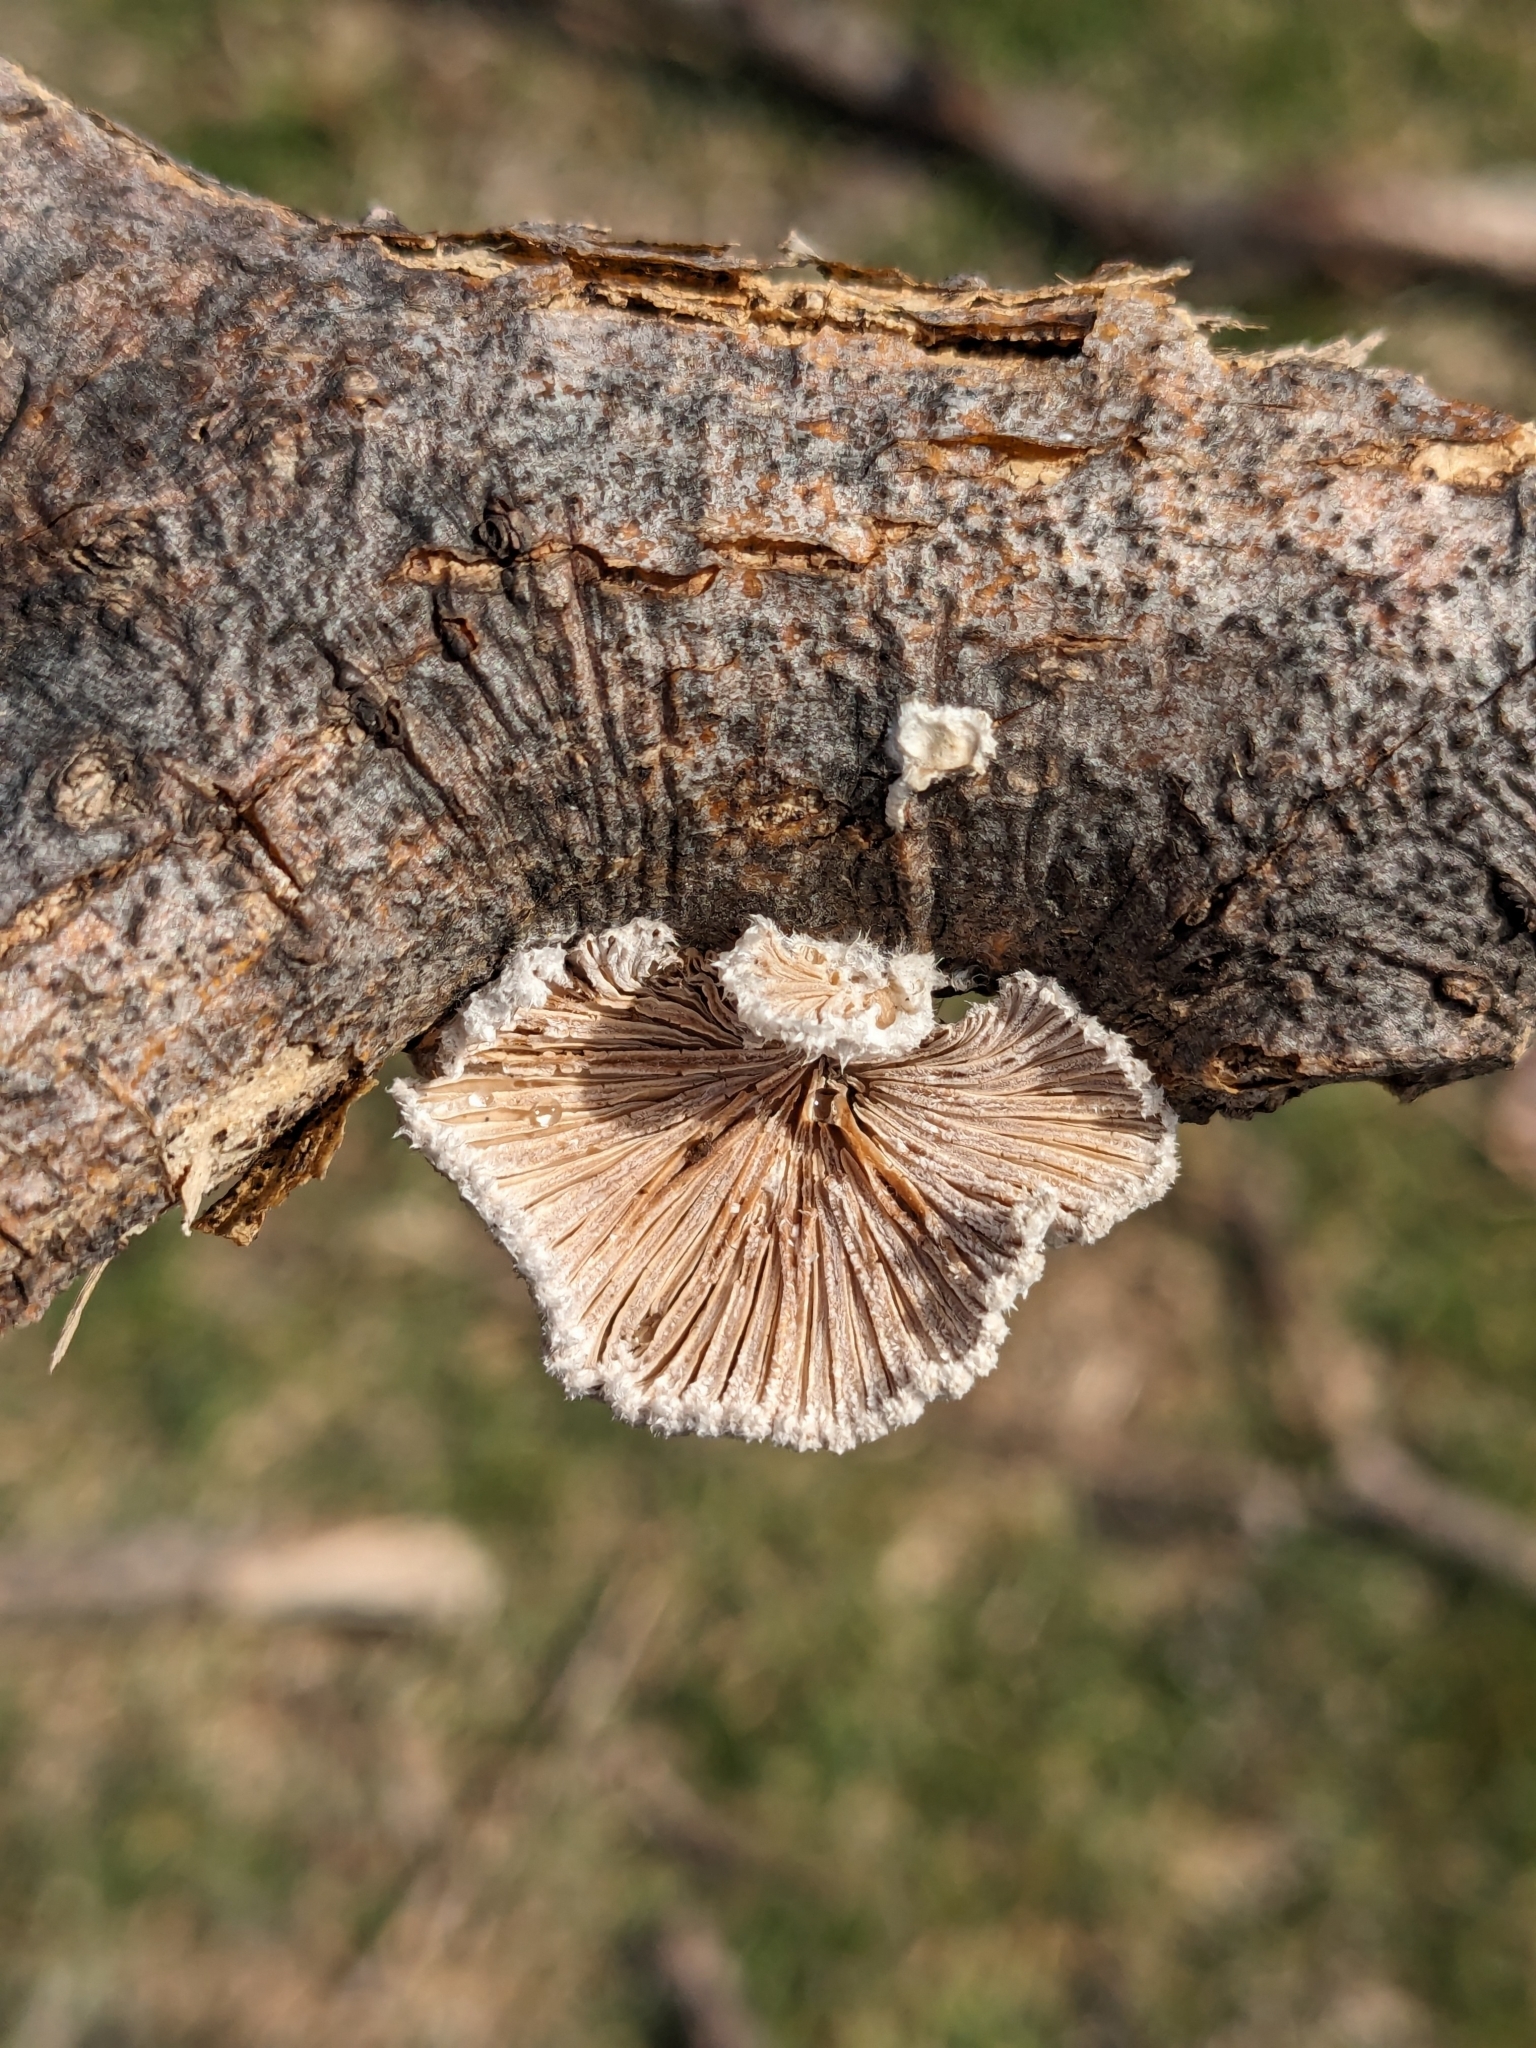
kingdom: Fungi
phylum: Basidiomycota
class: Agaricomycetes
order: Agaricales
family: Schizophyllaceae
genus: Schizophyllum
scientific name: Schizophyllum commune
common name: Common porecrust
